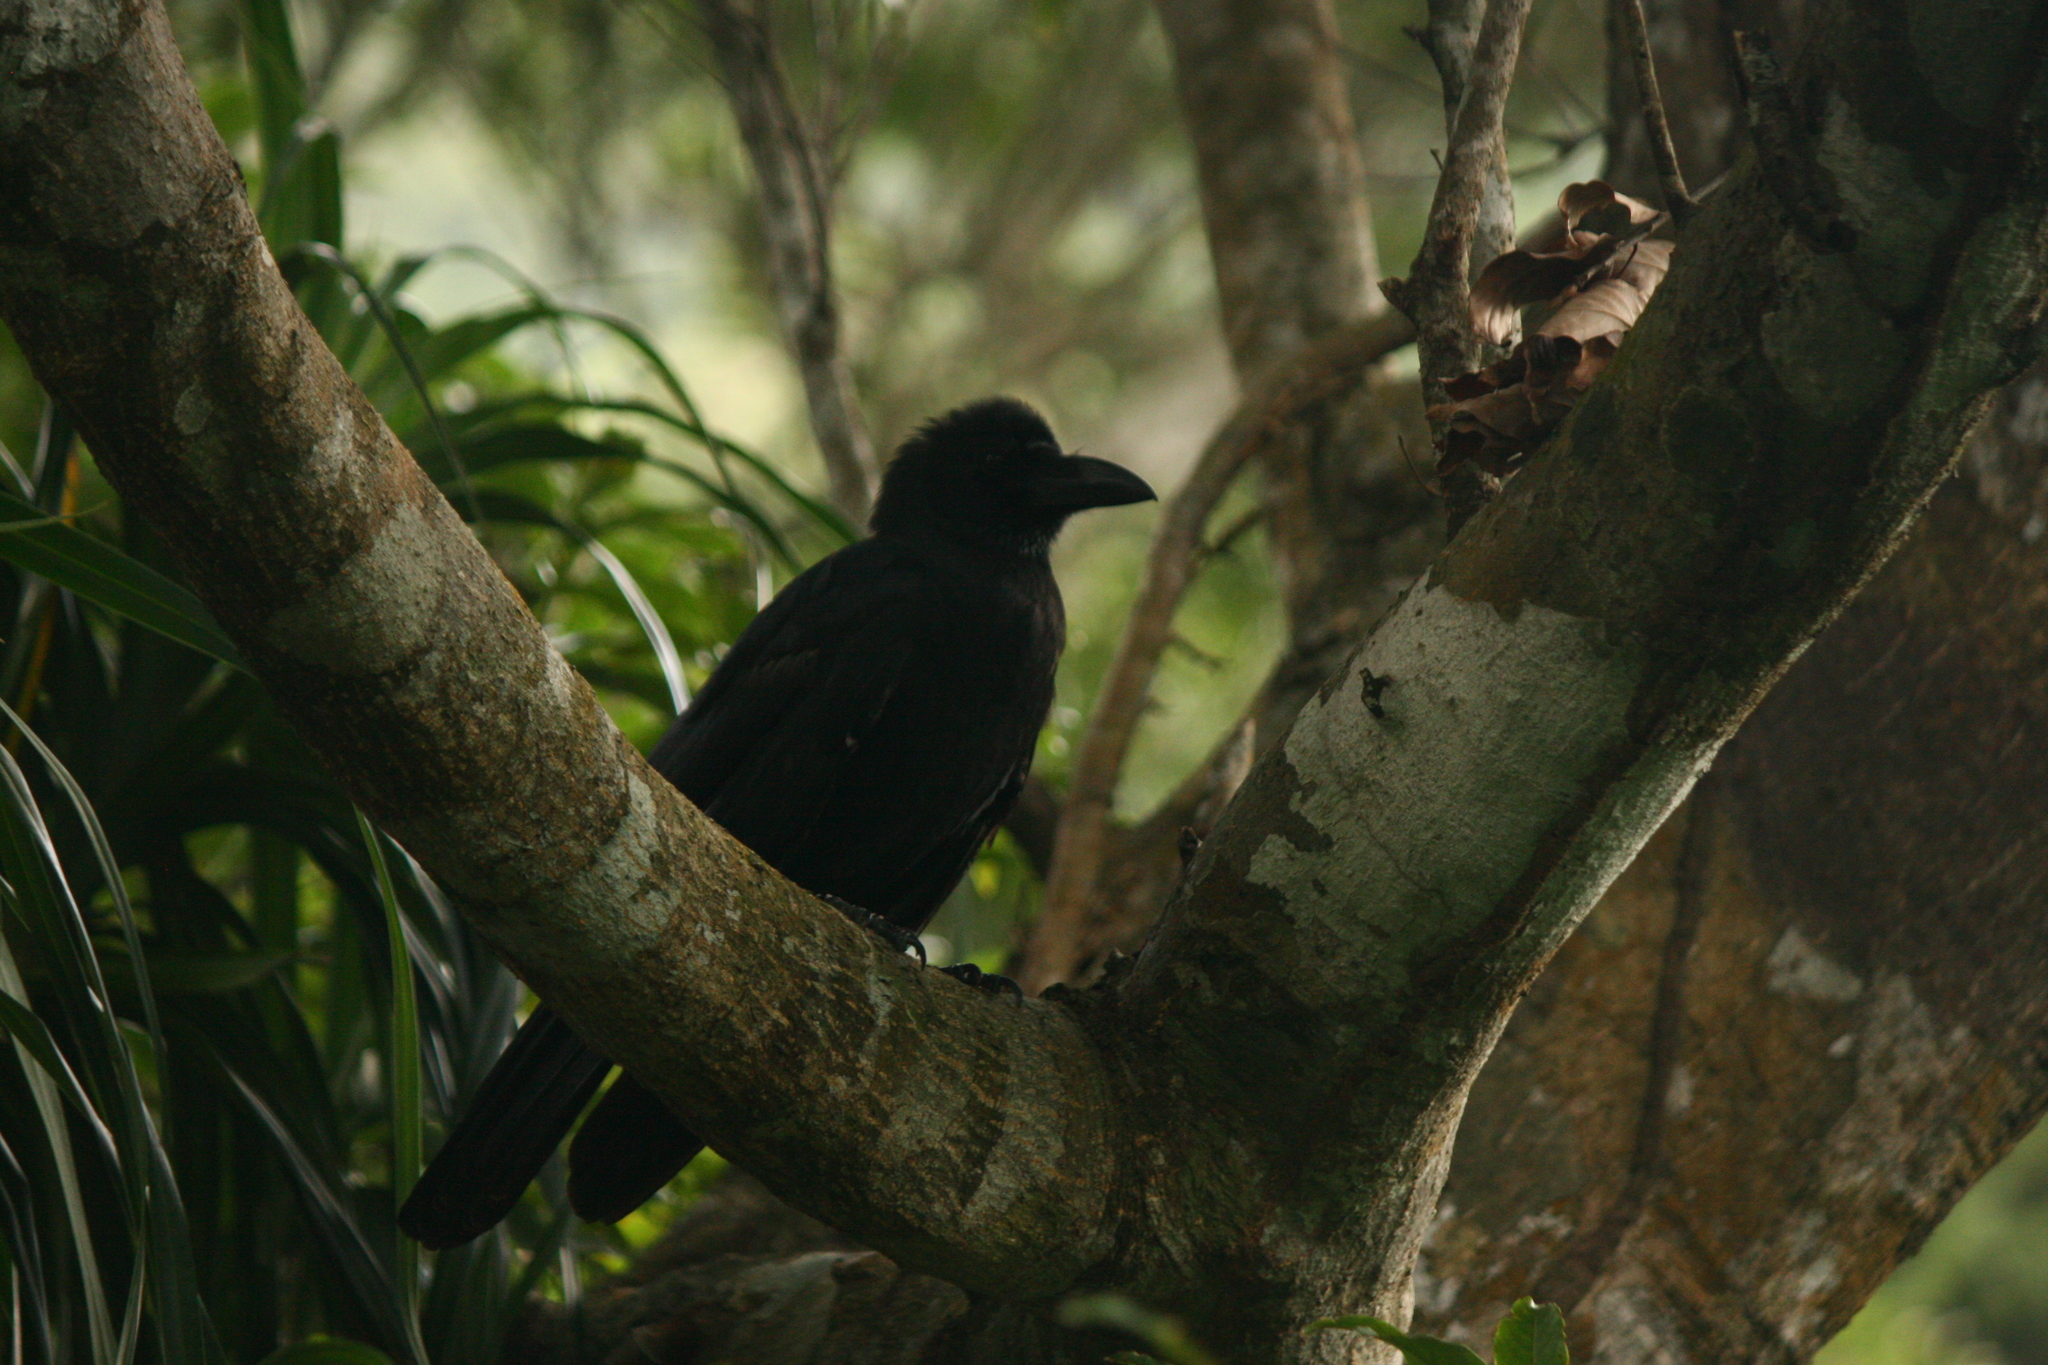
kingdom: Animalia
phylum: Chordata
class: Aves
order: Passeriformes
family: Corvidae
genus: Corvus
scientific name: Corvus macrorhynchos
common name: Large-billed crow
